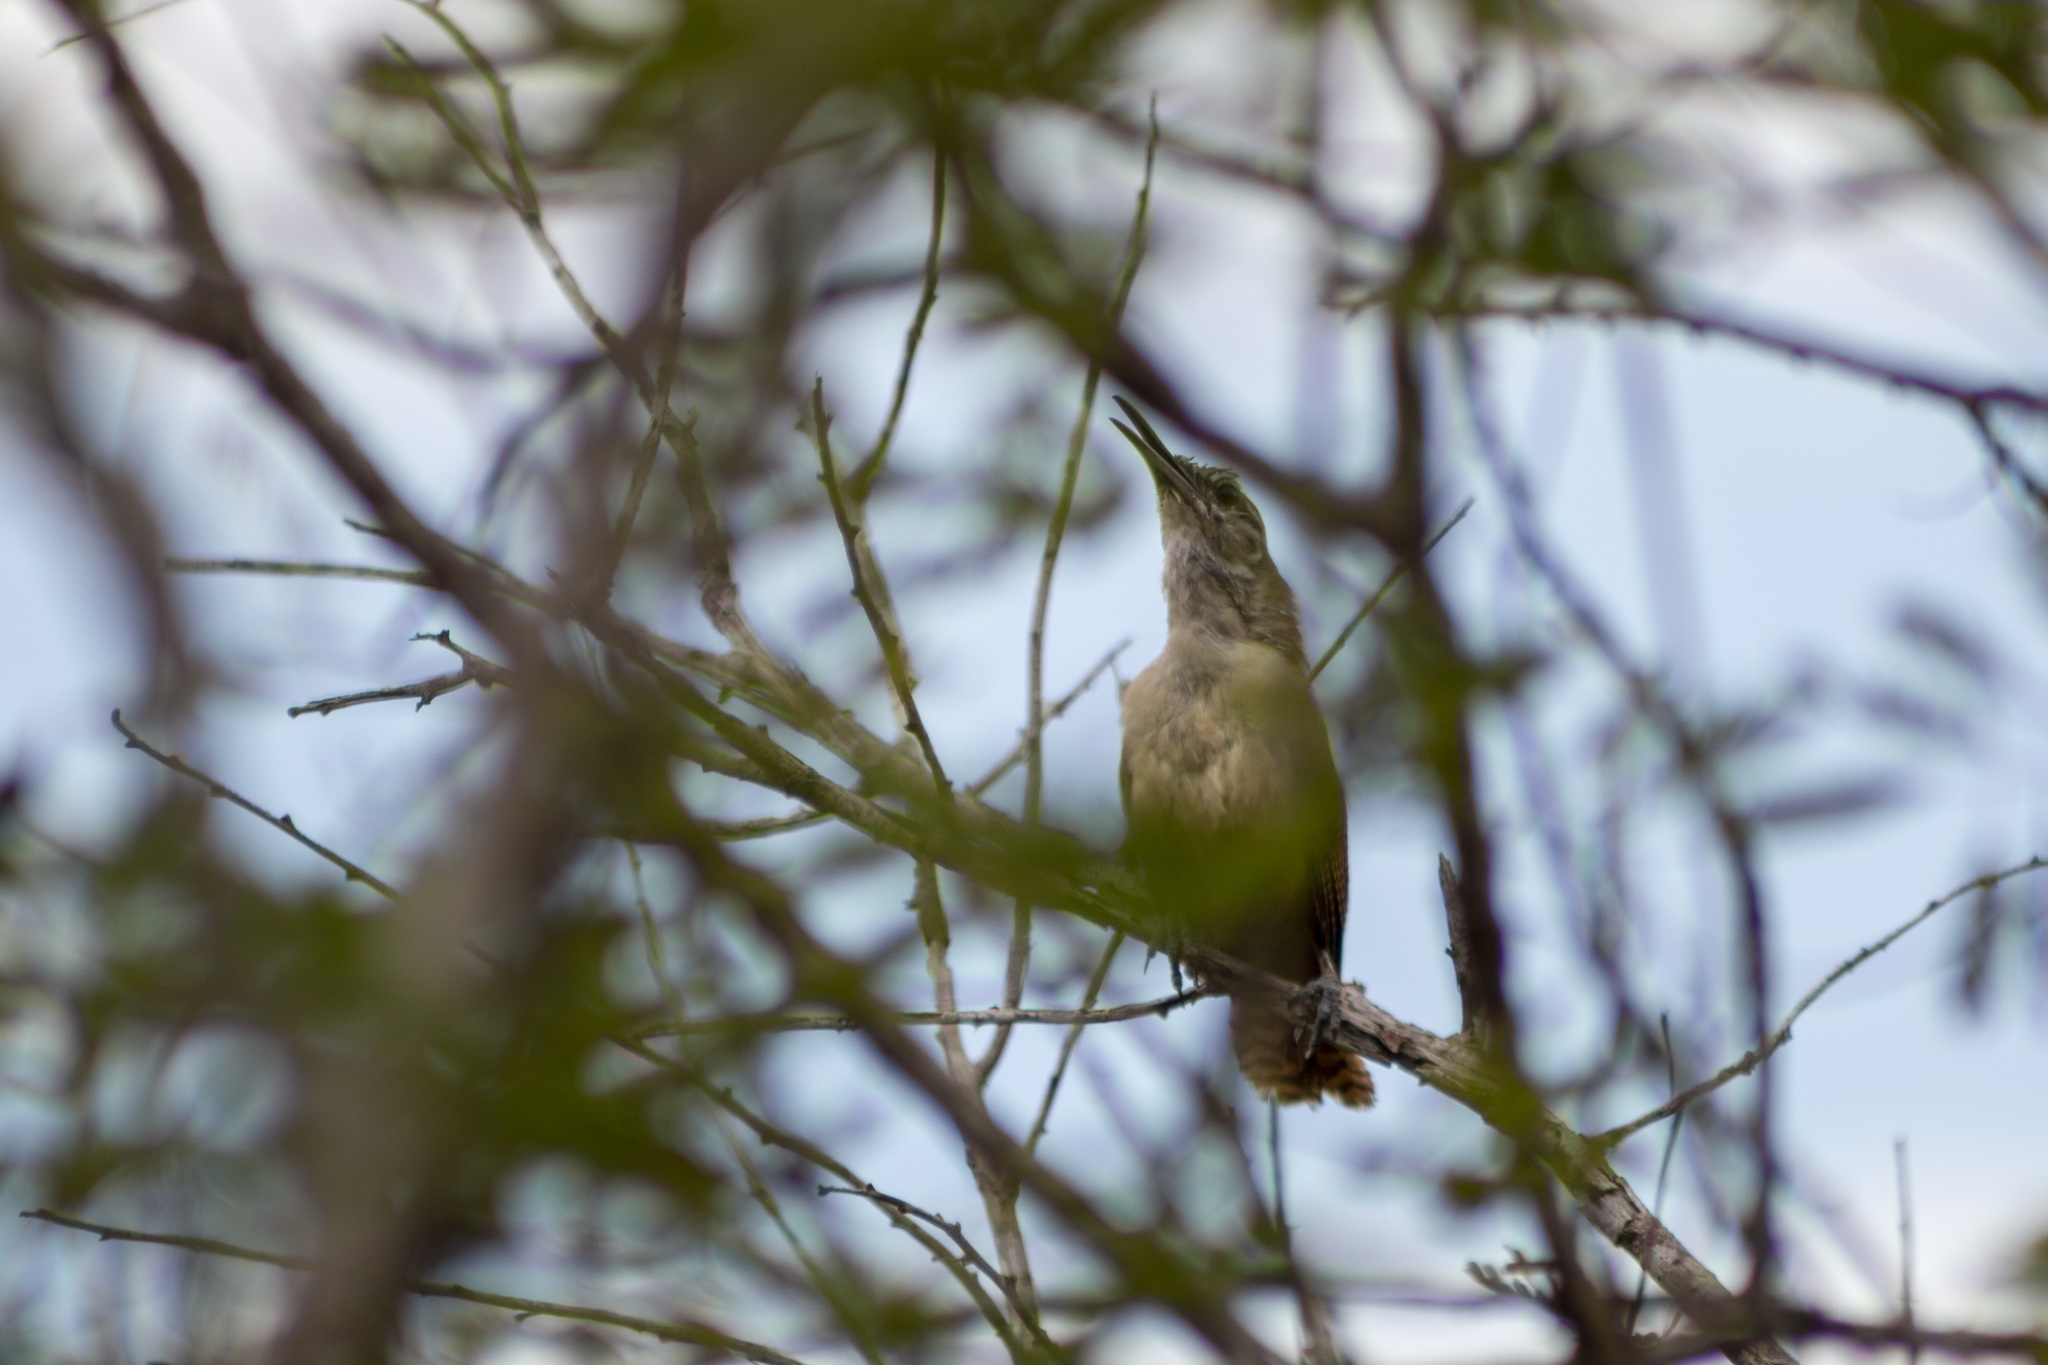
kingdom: Animalia
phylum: Chordata
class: Aves
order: Passeriformes
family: Troglodytidae
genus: Cantorchilus
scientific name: Cantorchilus longirostris
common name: Long-billed wren
